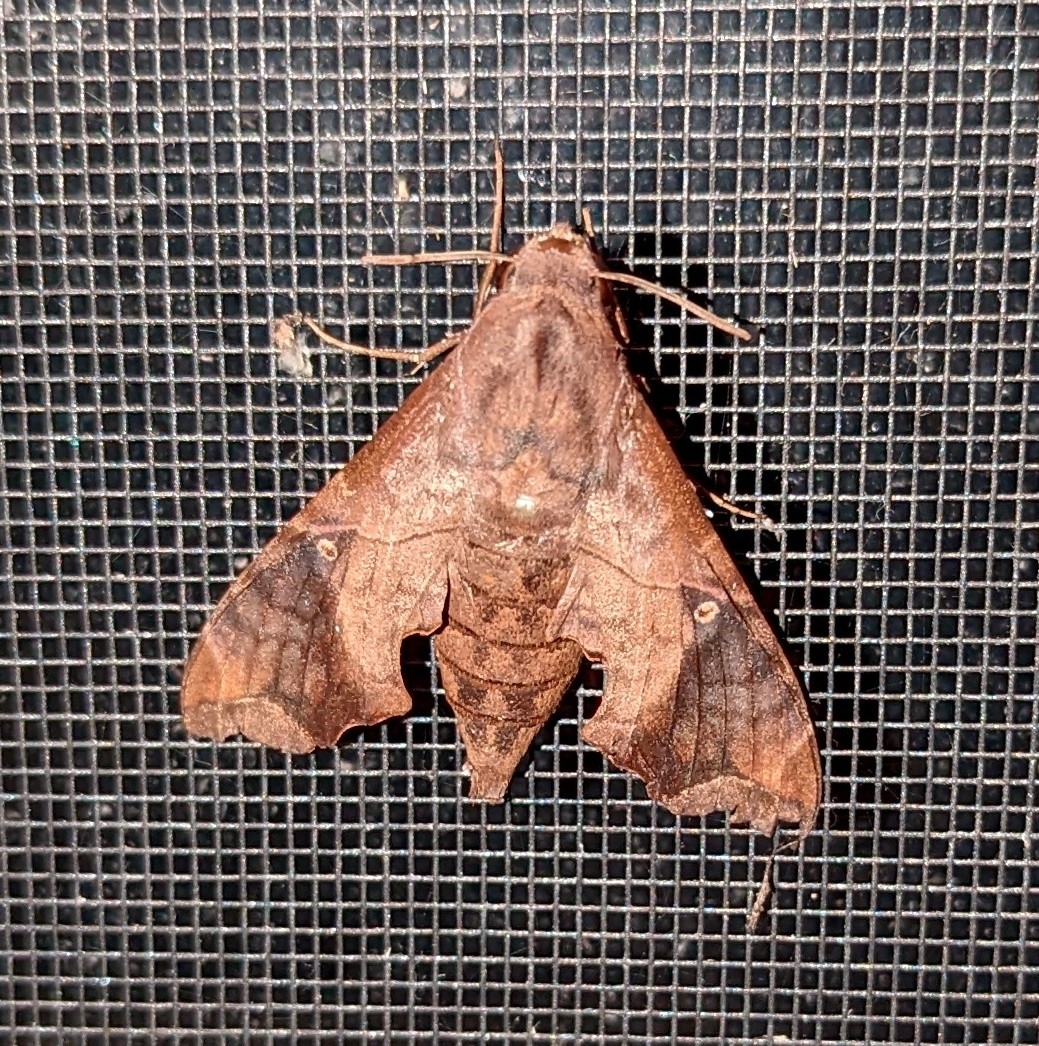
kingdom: Animalia
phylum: Arthropoda
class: Insecta
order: Lepidoptera
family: Sphingidae
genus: Enyo
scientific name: Enyo lugubris
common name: Mournful sphinx
